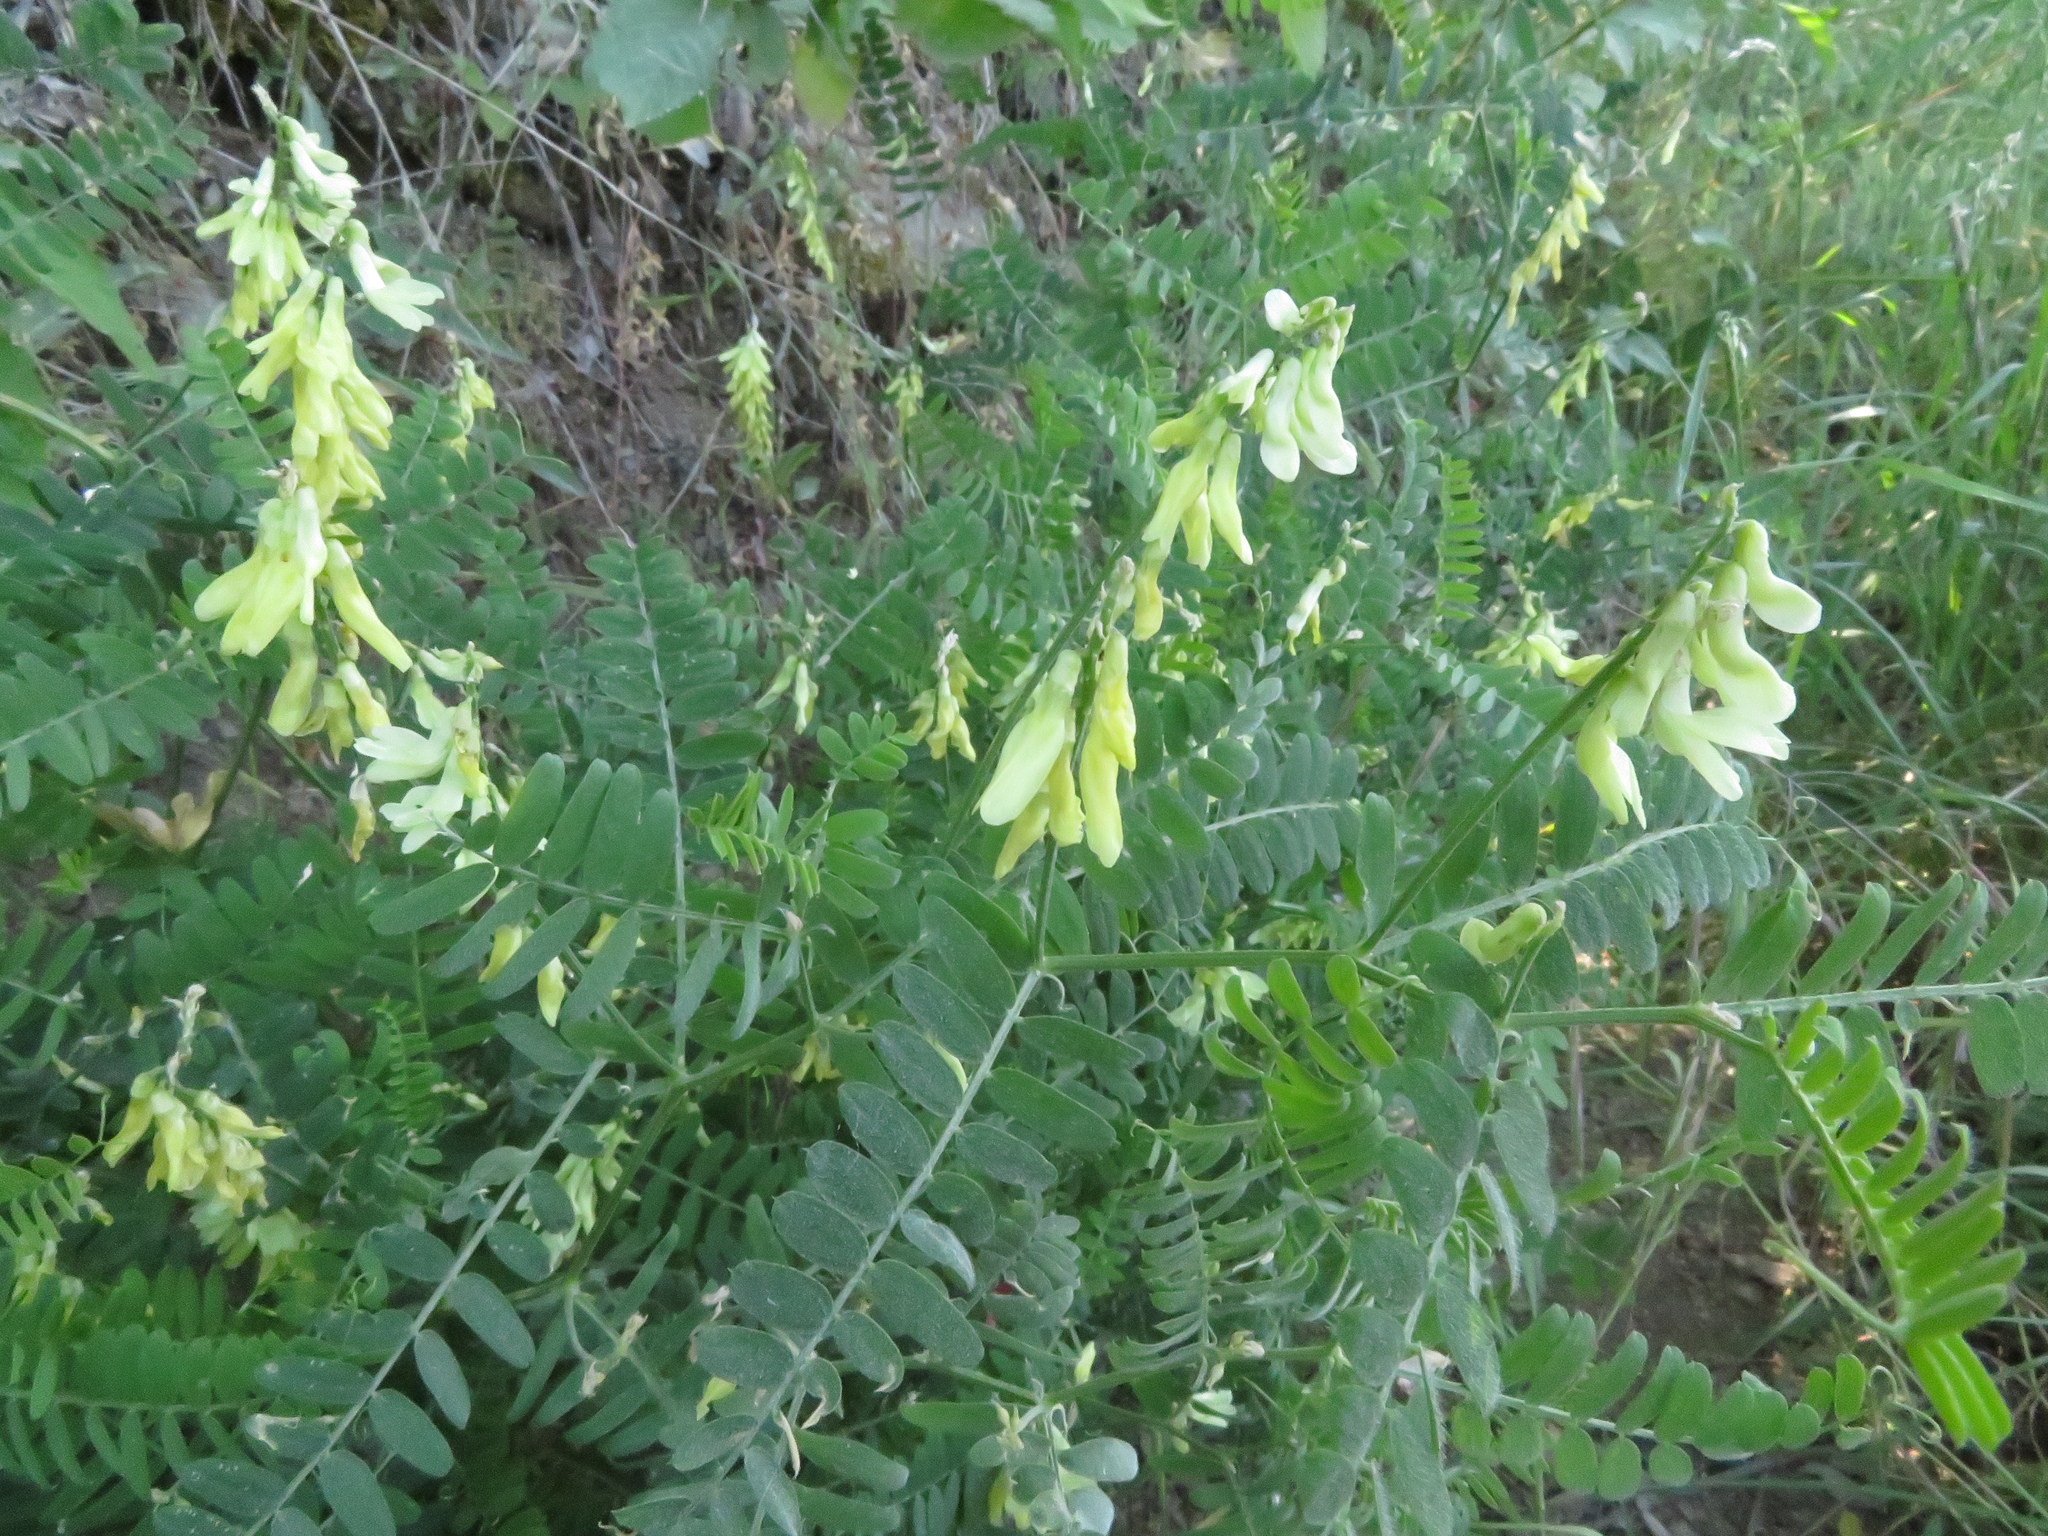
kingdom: Plantae
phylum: Tracheophyta
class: Magnoliopsida
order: Fabales
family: Fabaceae
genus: Vicia
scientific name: Vicia ochroleuca
